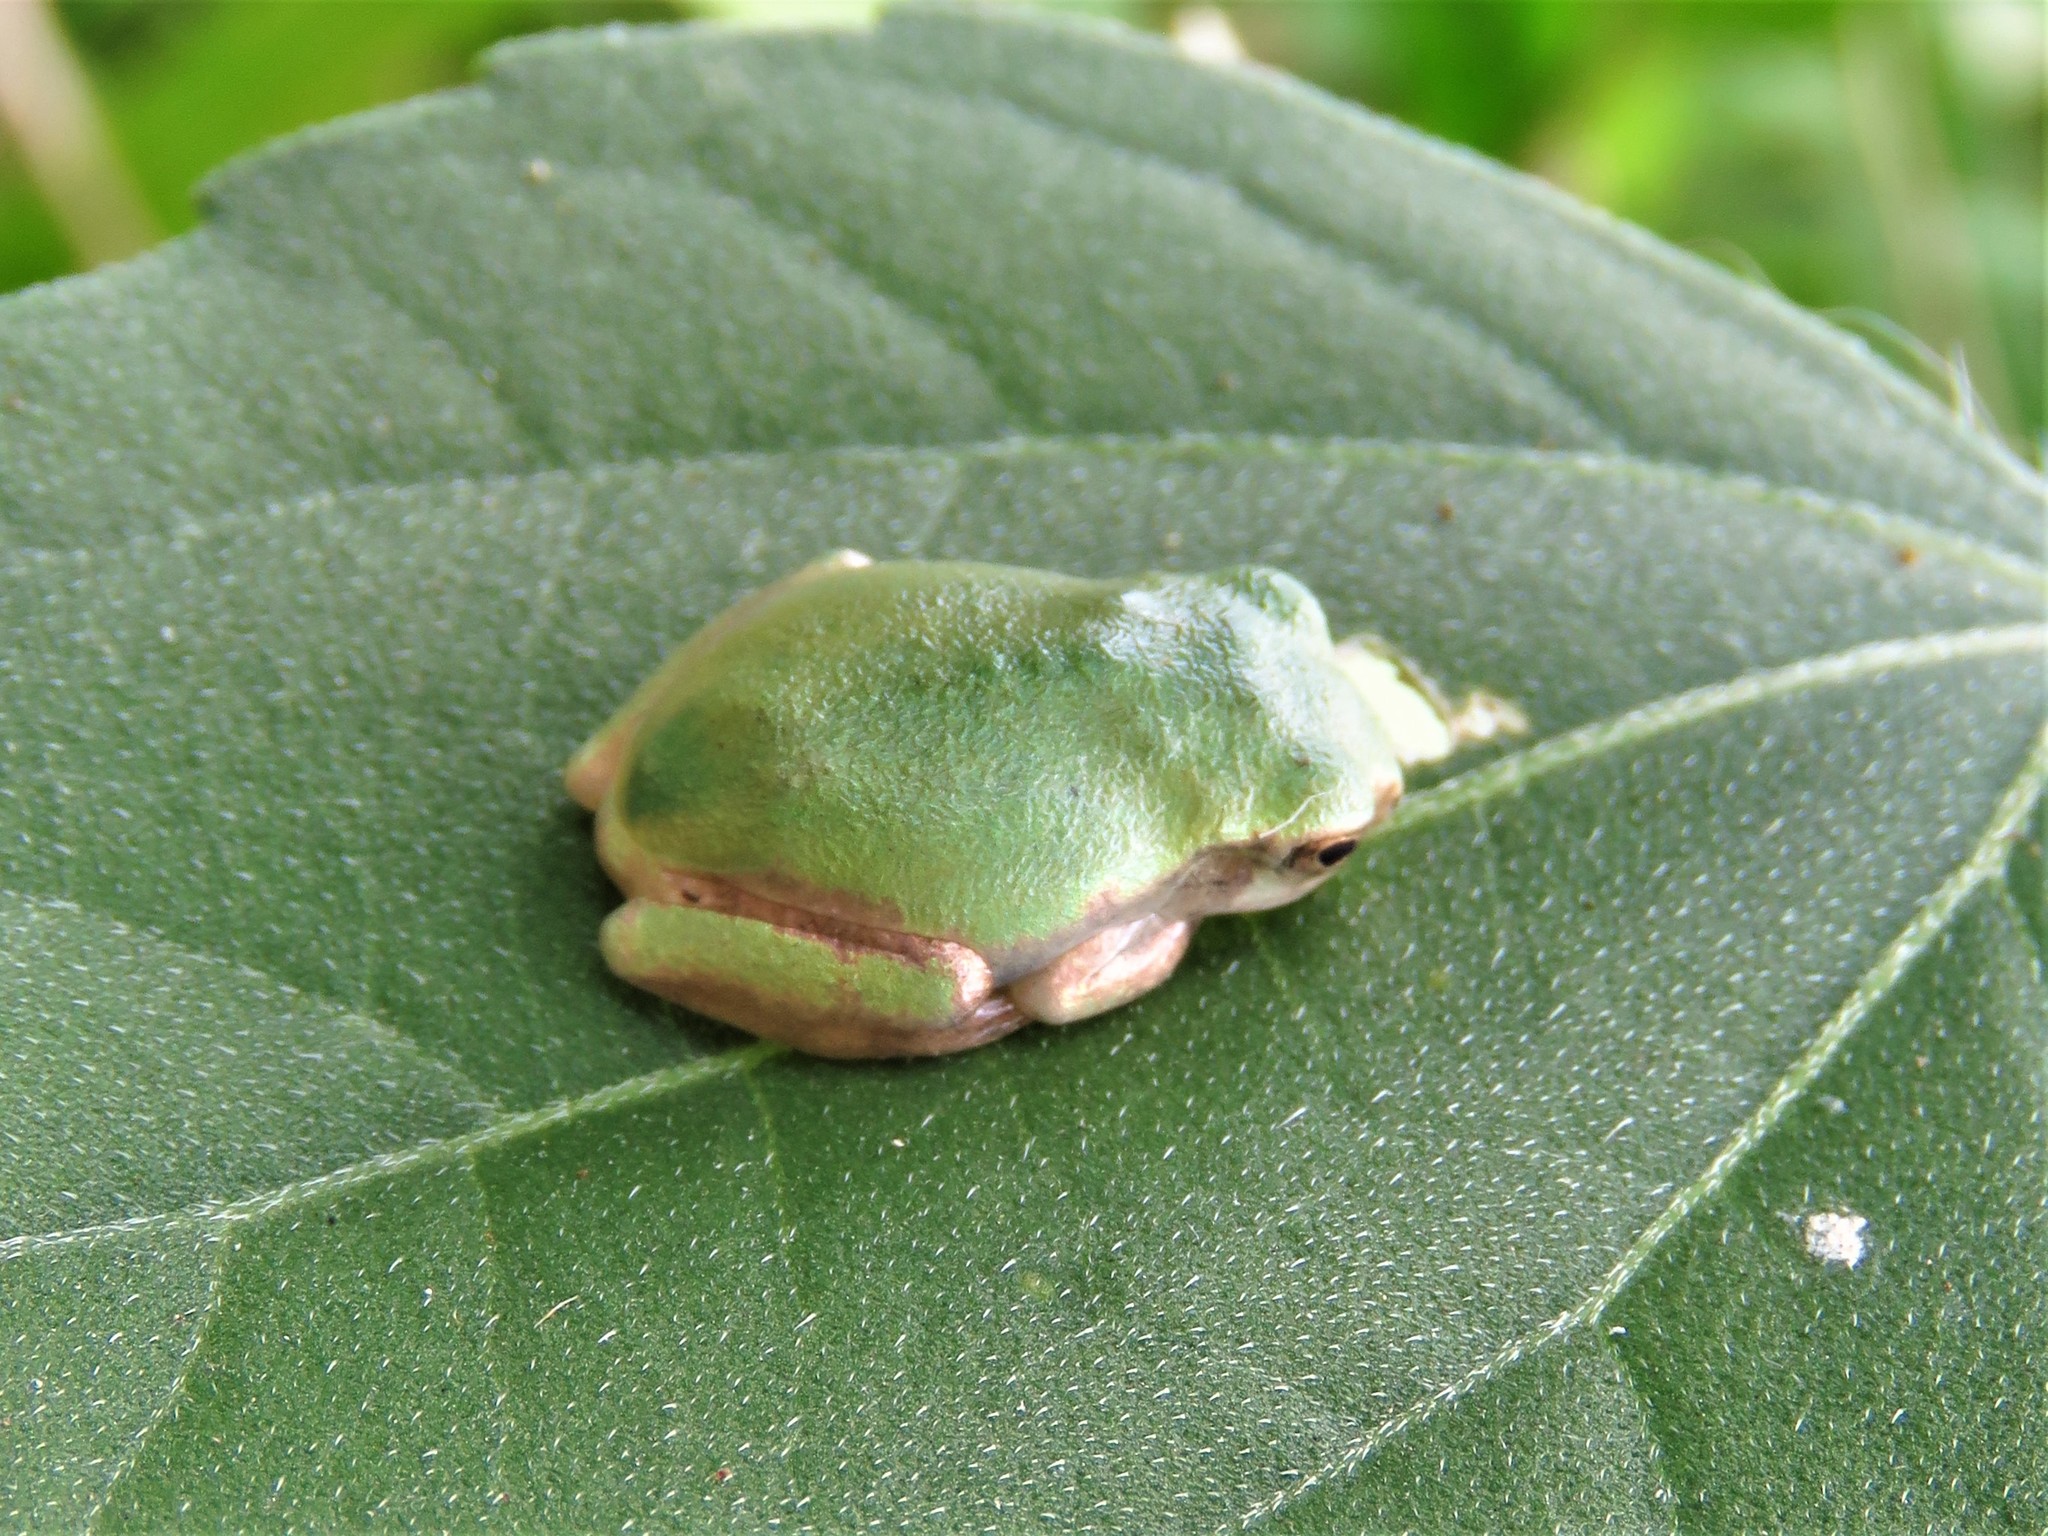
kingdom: Animalia
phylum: Chordata
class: Amphibia
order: Anura
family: Hylidae
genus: Dryophytes
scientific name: Dryophytes squirellus
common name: Squirrel treefrog
